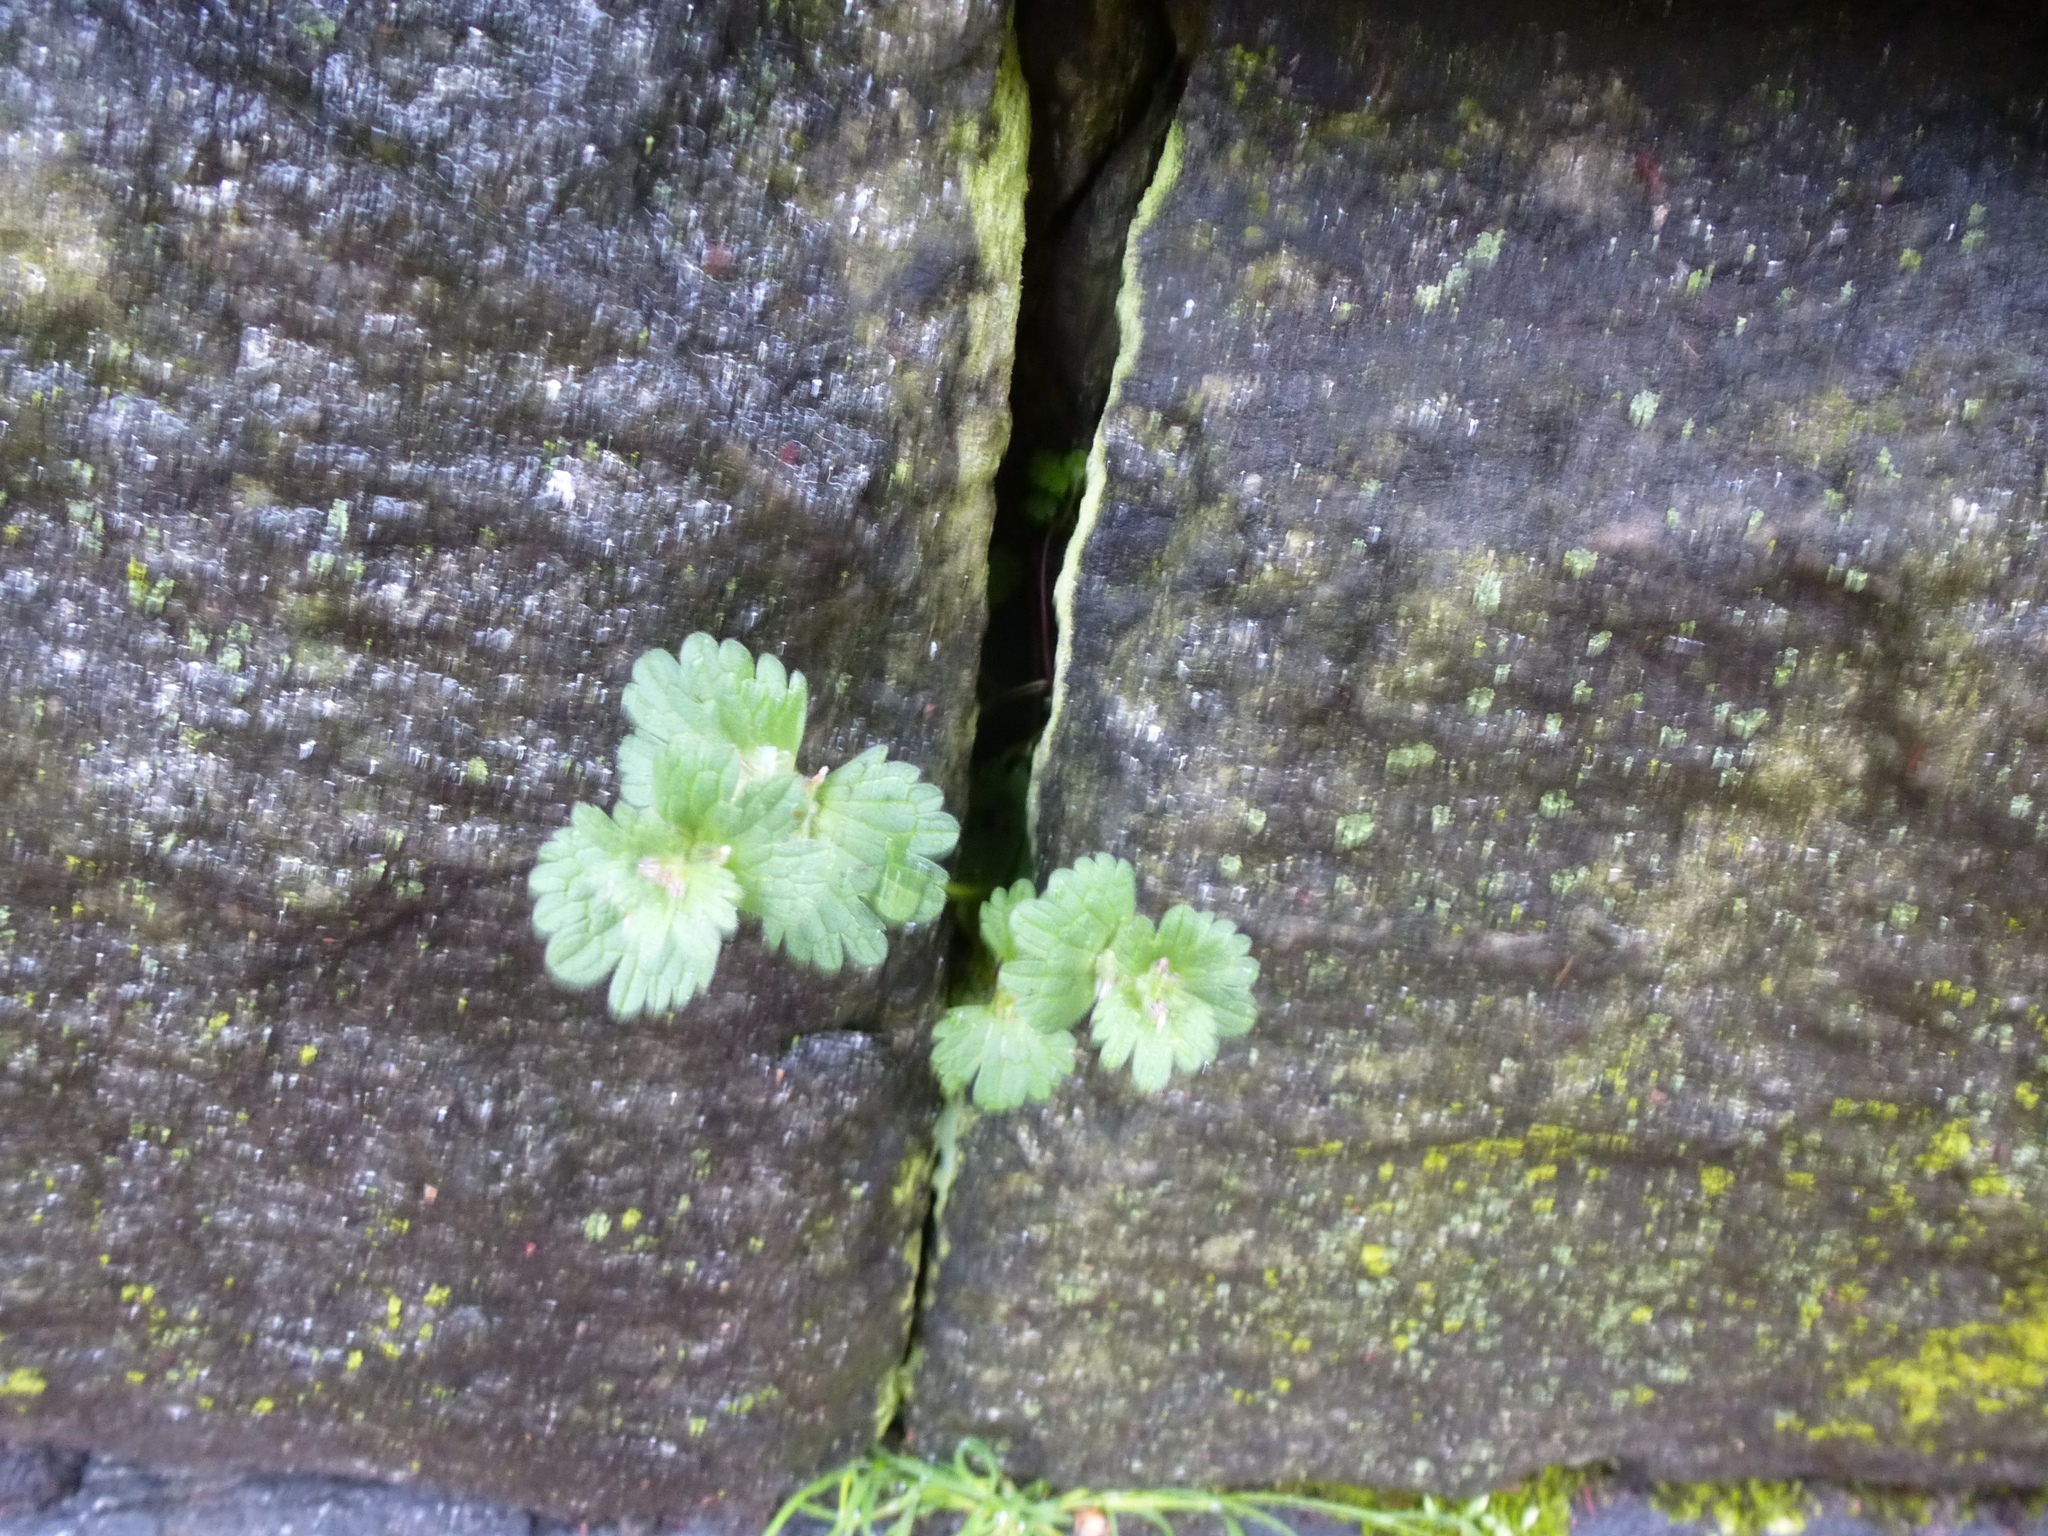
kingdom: Plantae
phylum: Tracheophyta
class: Magnoliopsida
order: Lamiales
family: Lamiaceae
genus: Lamium
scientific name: Lamium amplexicaule
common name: Henbit dead-nettle
